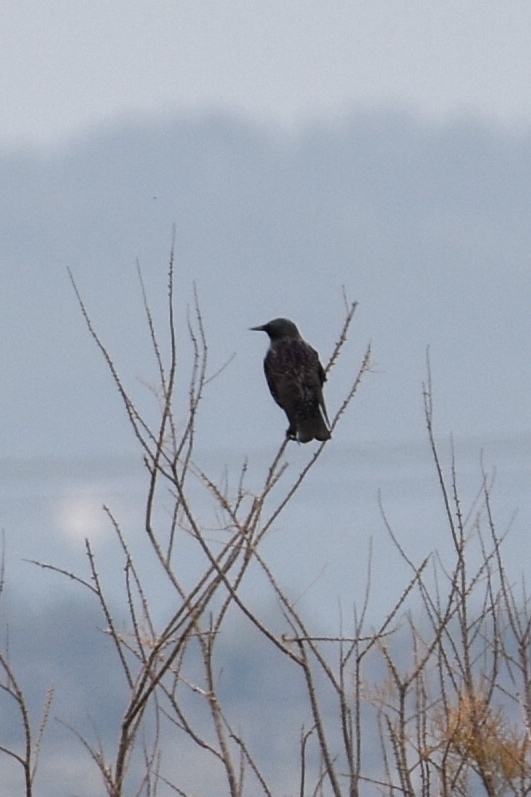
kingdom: Animalia
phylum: Chordata
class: Aves
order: Passeriformes
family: Sturnidae
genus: Sturnus
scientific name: Sturnus vulgaris
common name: Common starling
